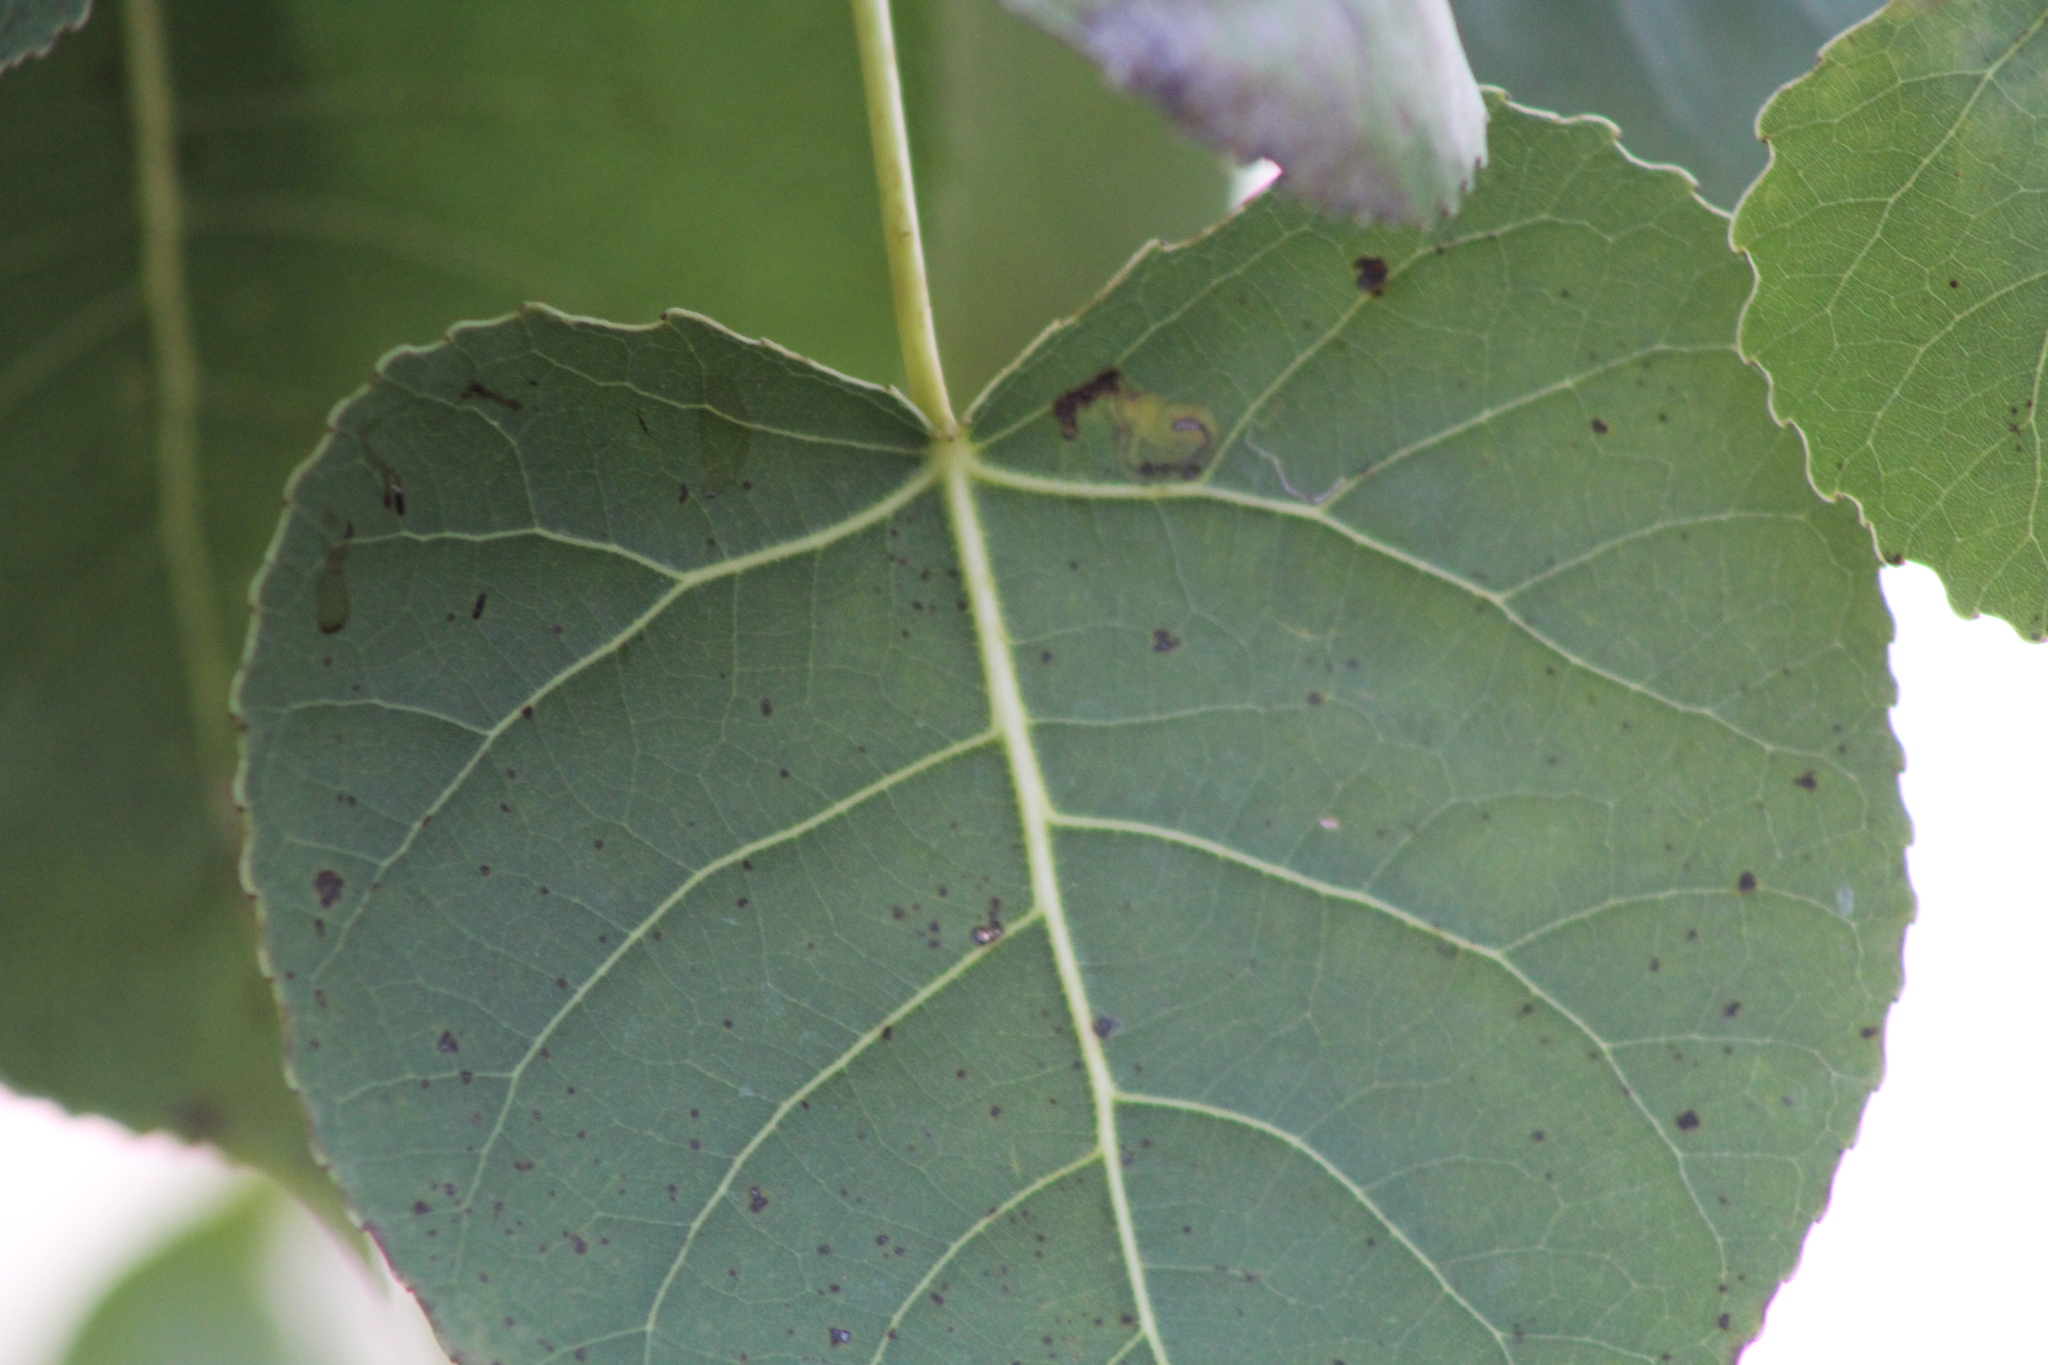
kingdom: Plantae
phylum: Tracheophyta
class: Magnoliopsida
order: Malpighiales
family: Salicaceae
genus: Populus
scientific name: Populus deltoides
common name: Eastern cottonwood
